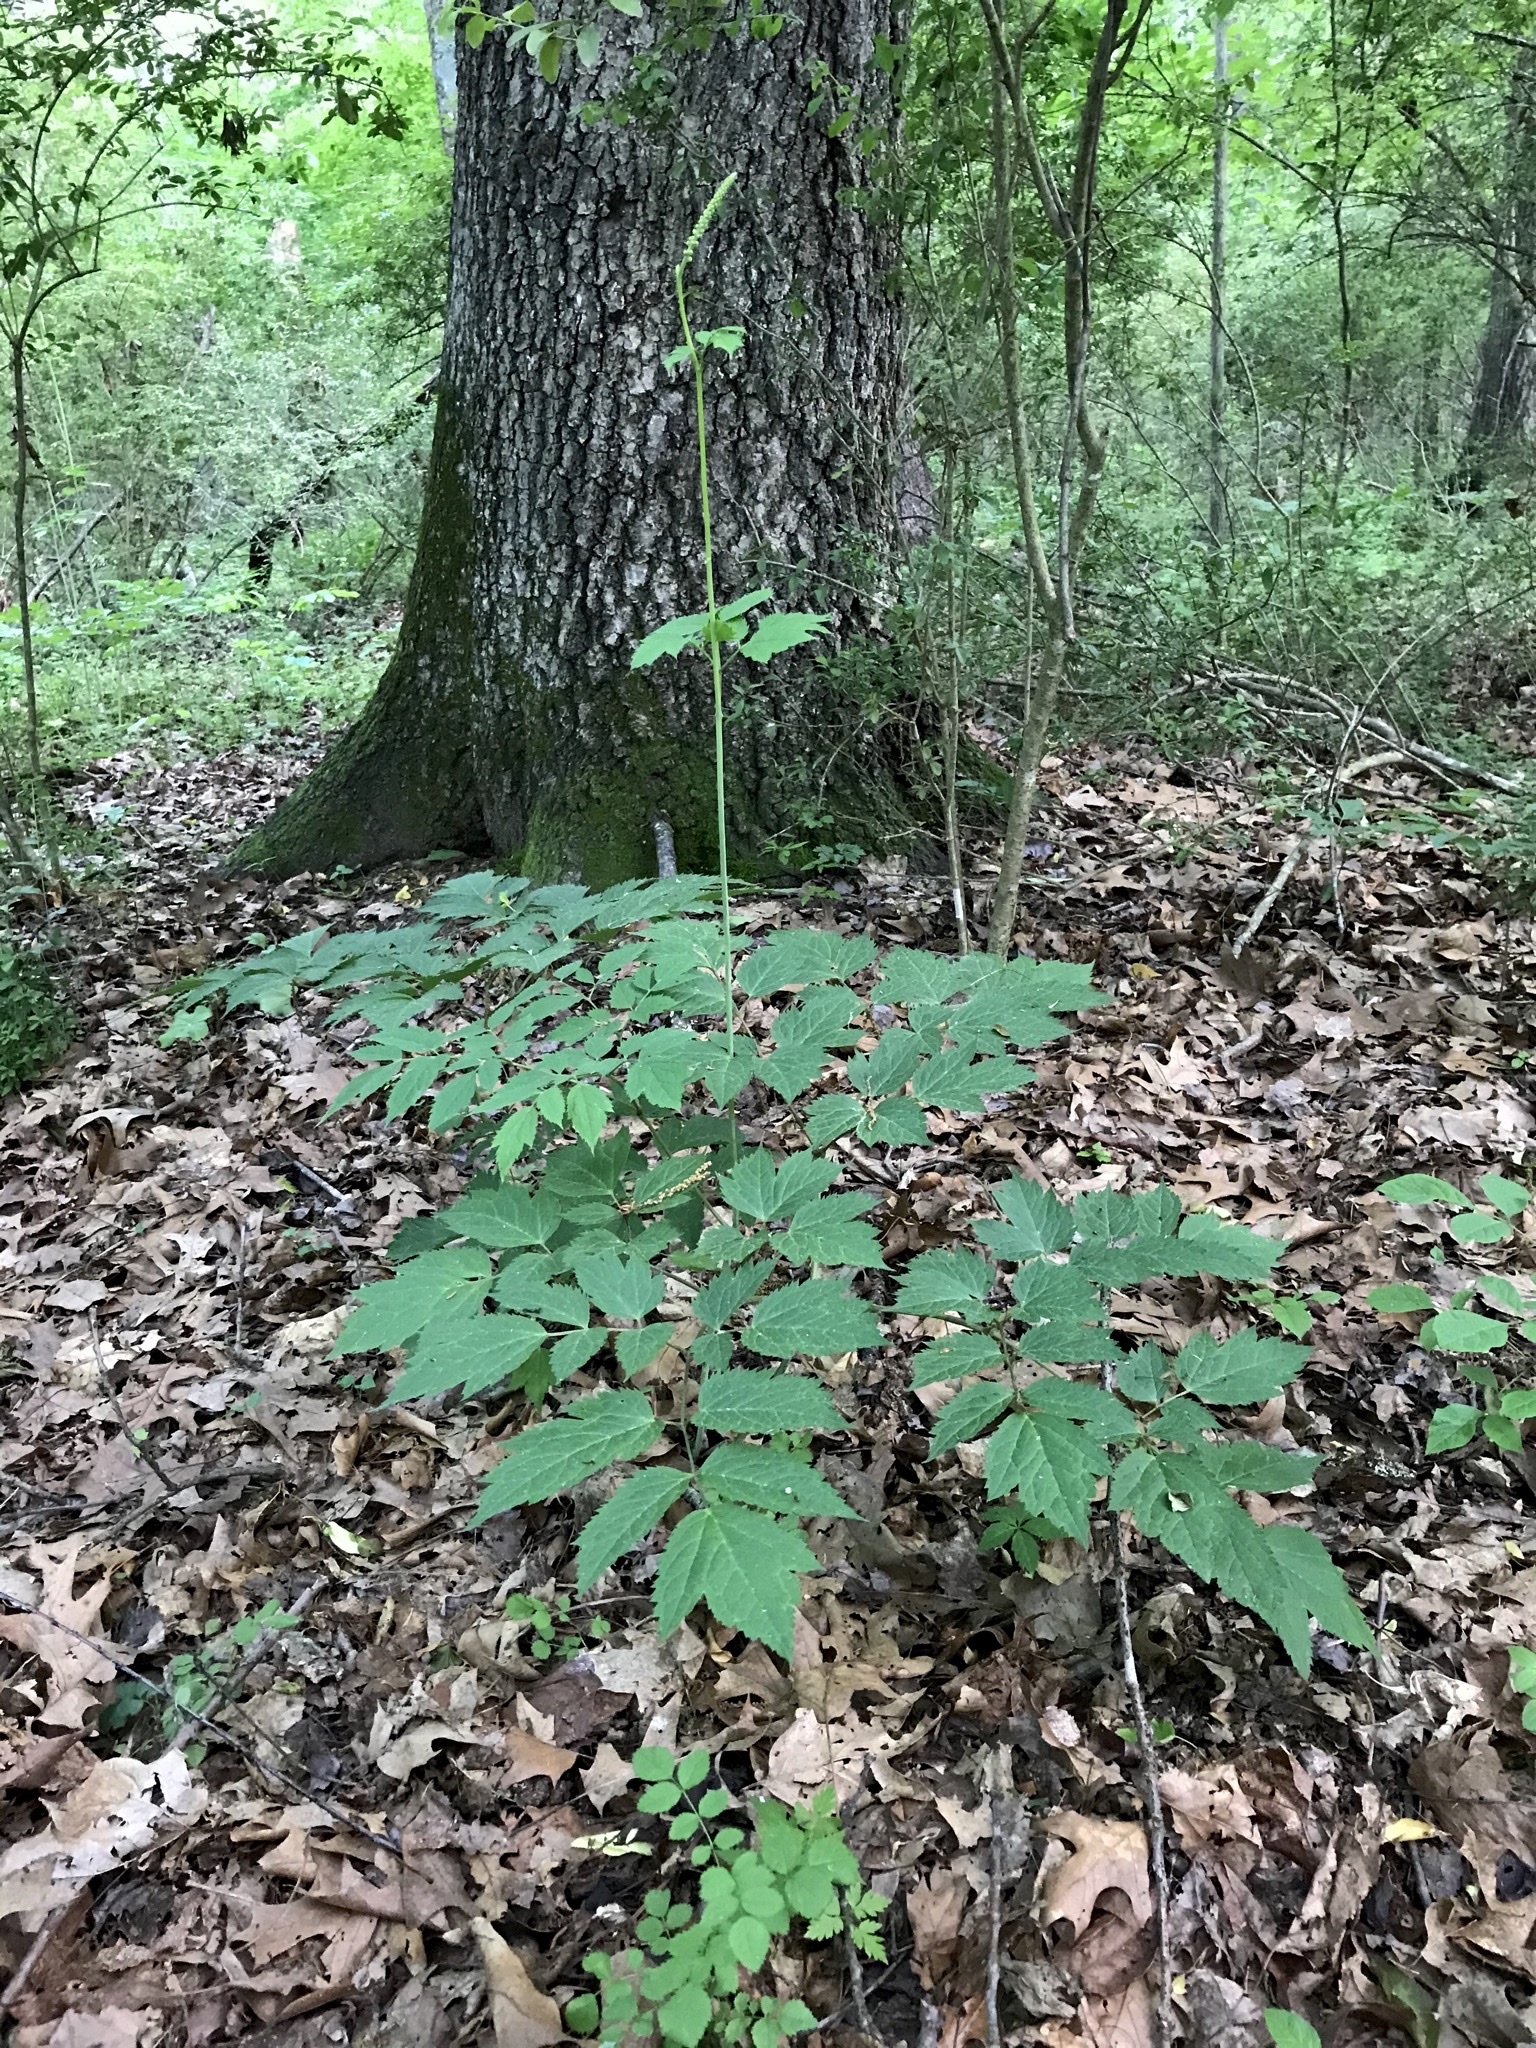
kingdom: Plantae
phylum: Tracheophyta
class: Magnoliopsida
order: Ranunculales
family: Ranunculaceae
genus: Actaea
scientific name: Actaea racemosa
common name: Black cohosh
